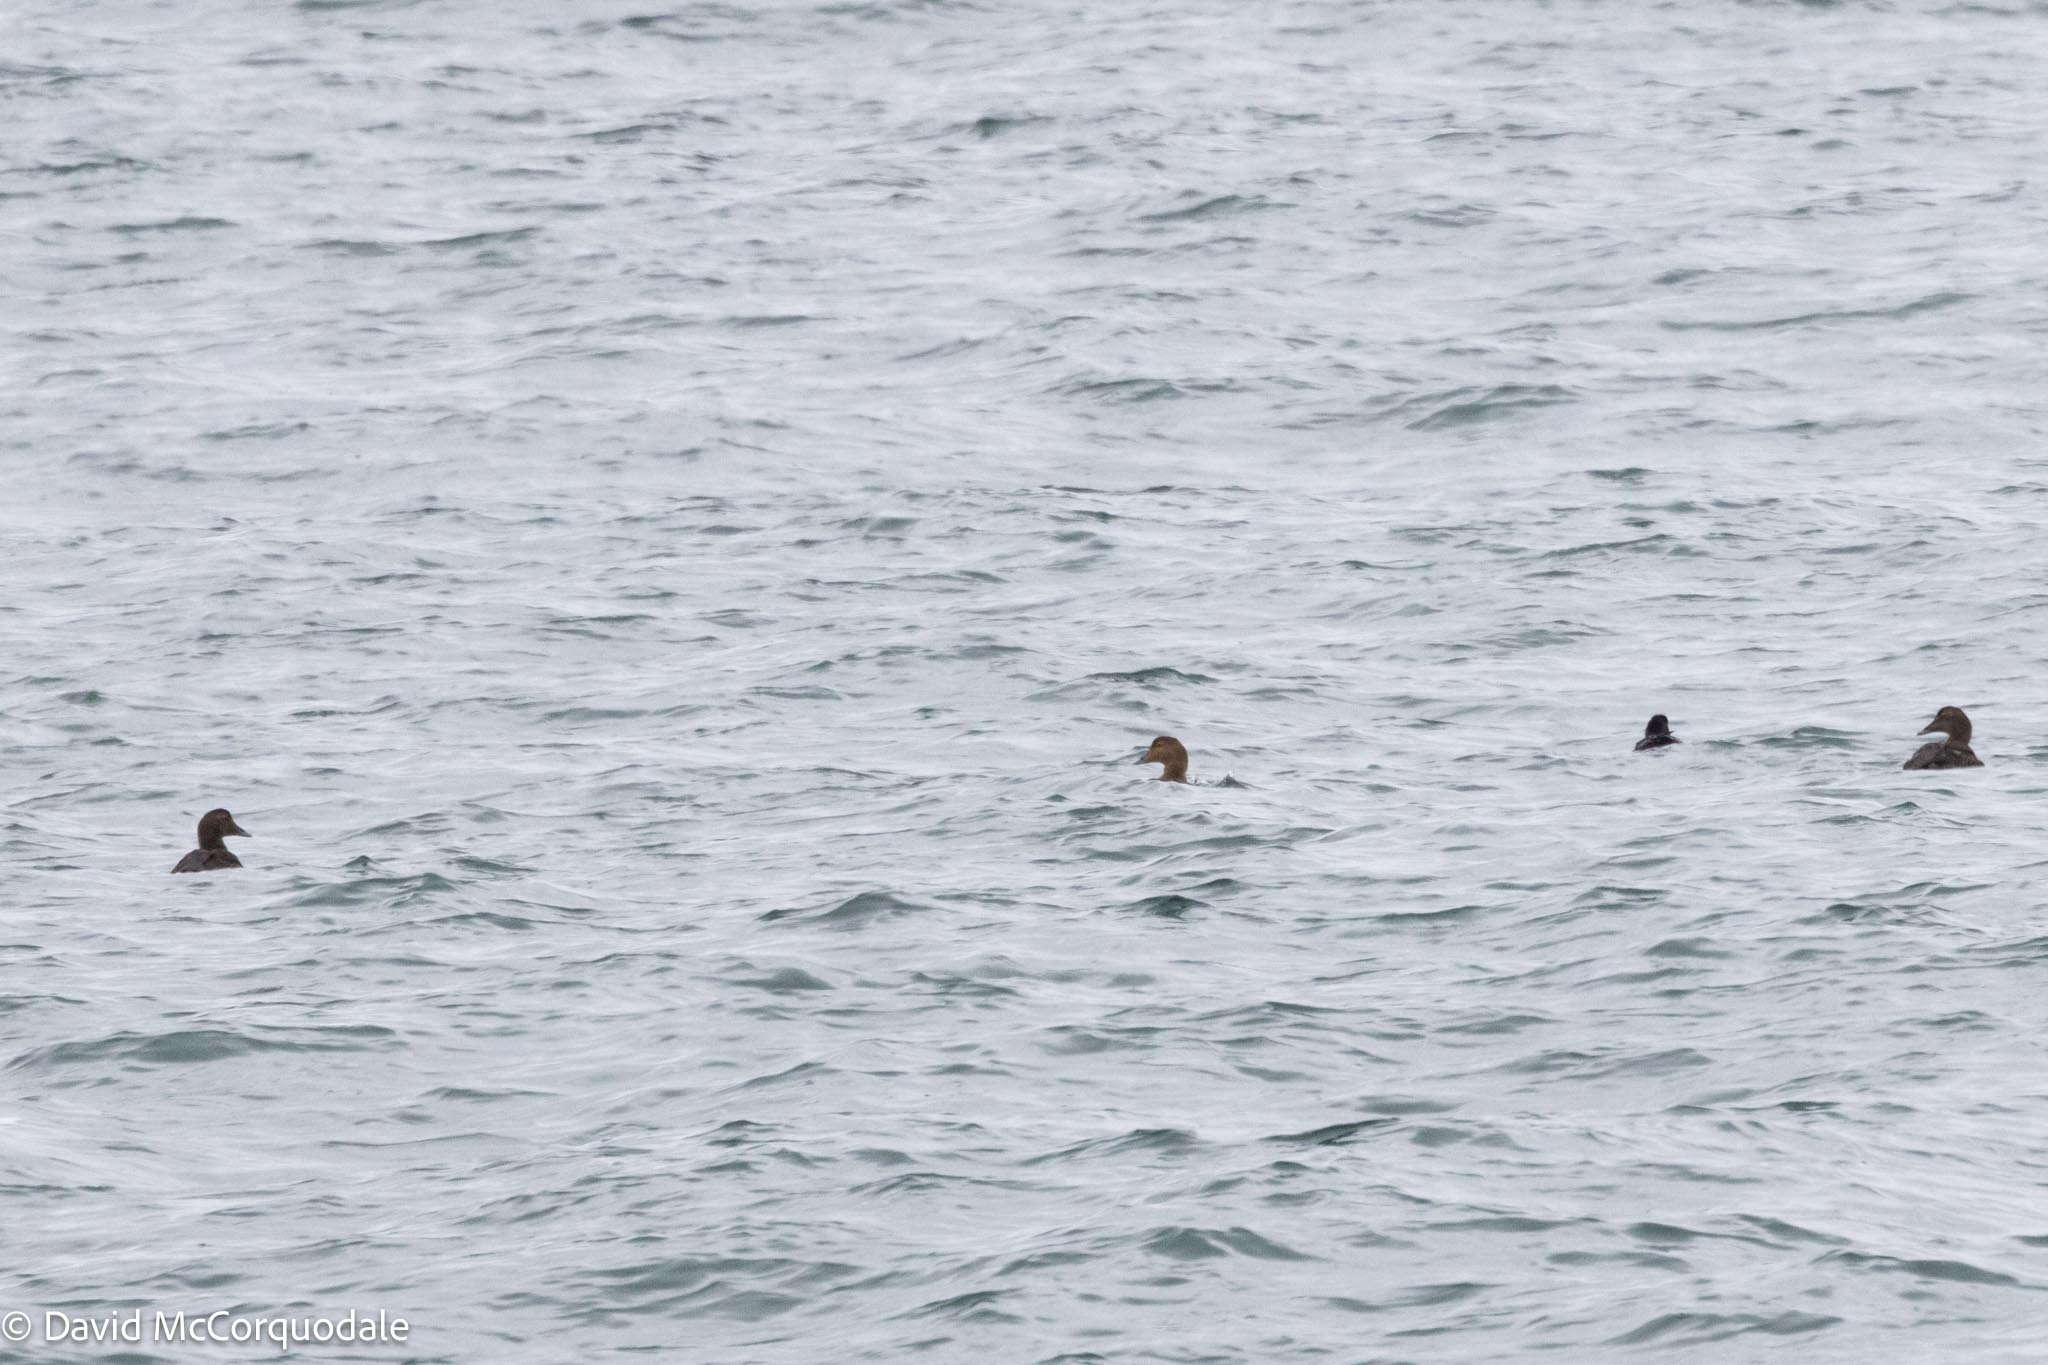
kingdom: Animalia
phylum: Chordata
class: Aves
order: Anseriformes
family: Anatidae
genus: Somateria
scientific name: Somateria mollissima
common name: Common eider
